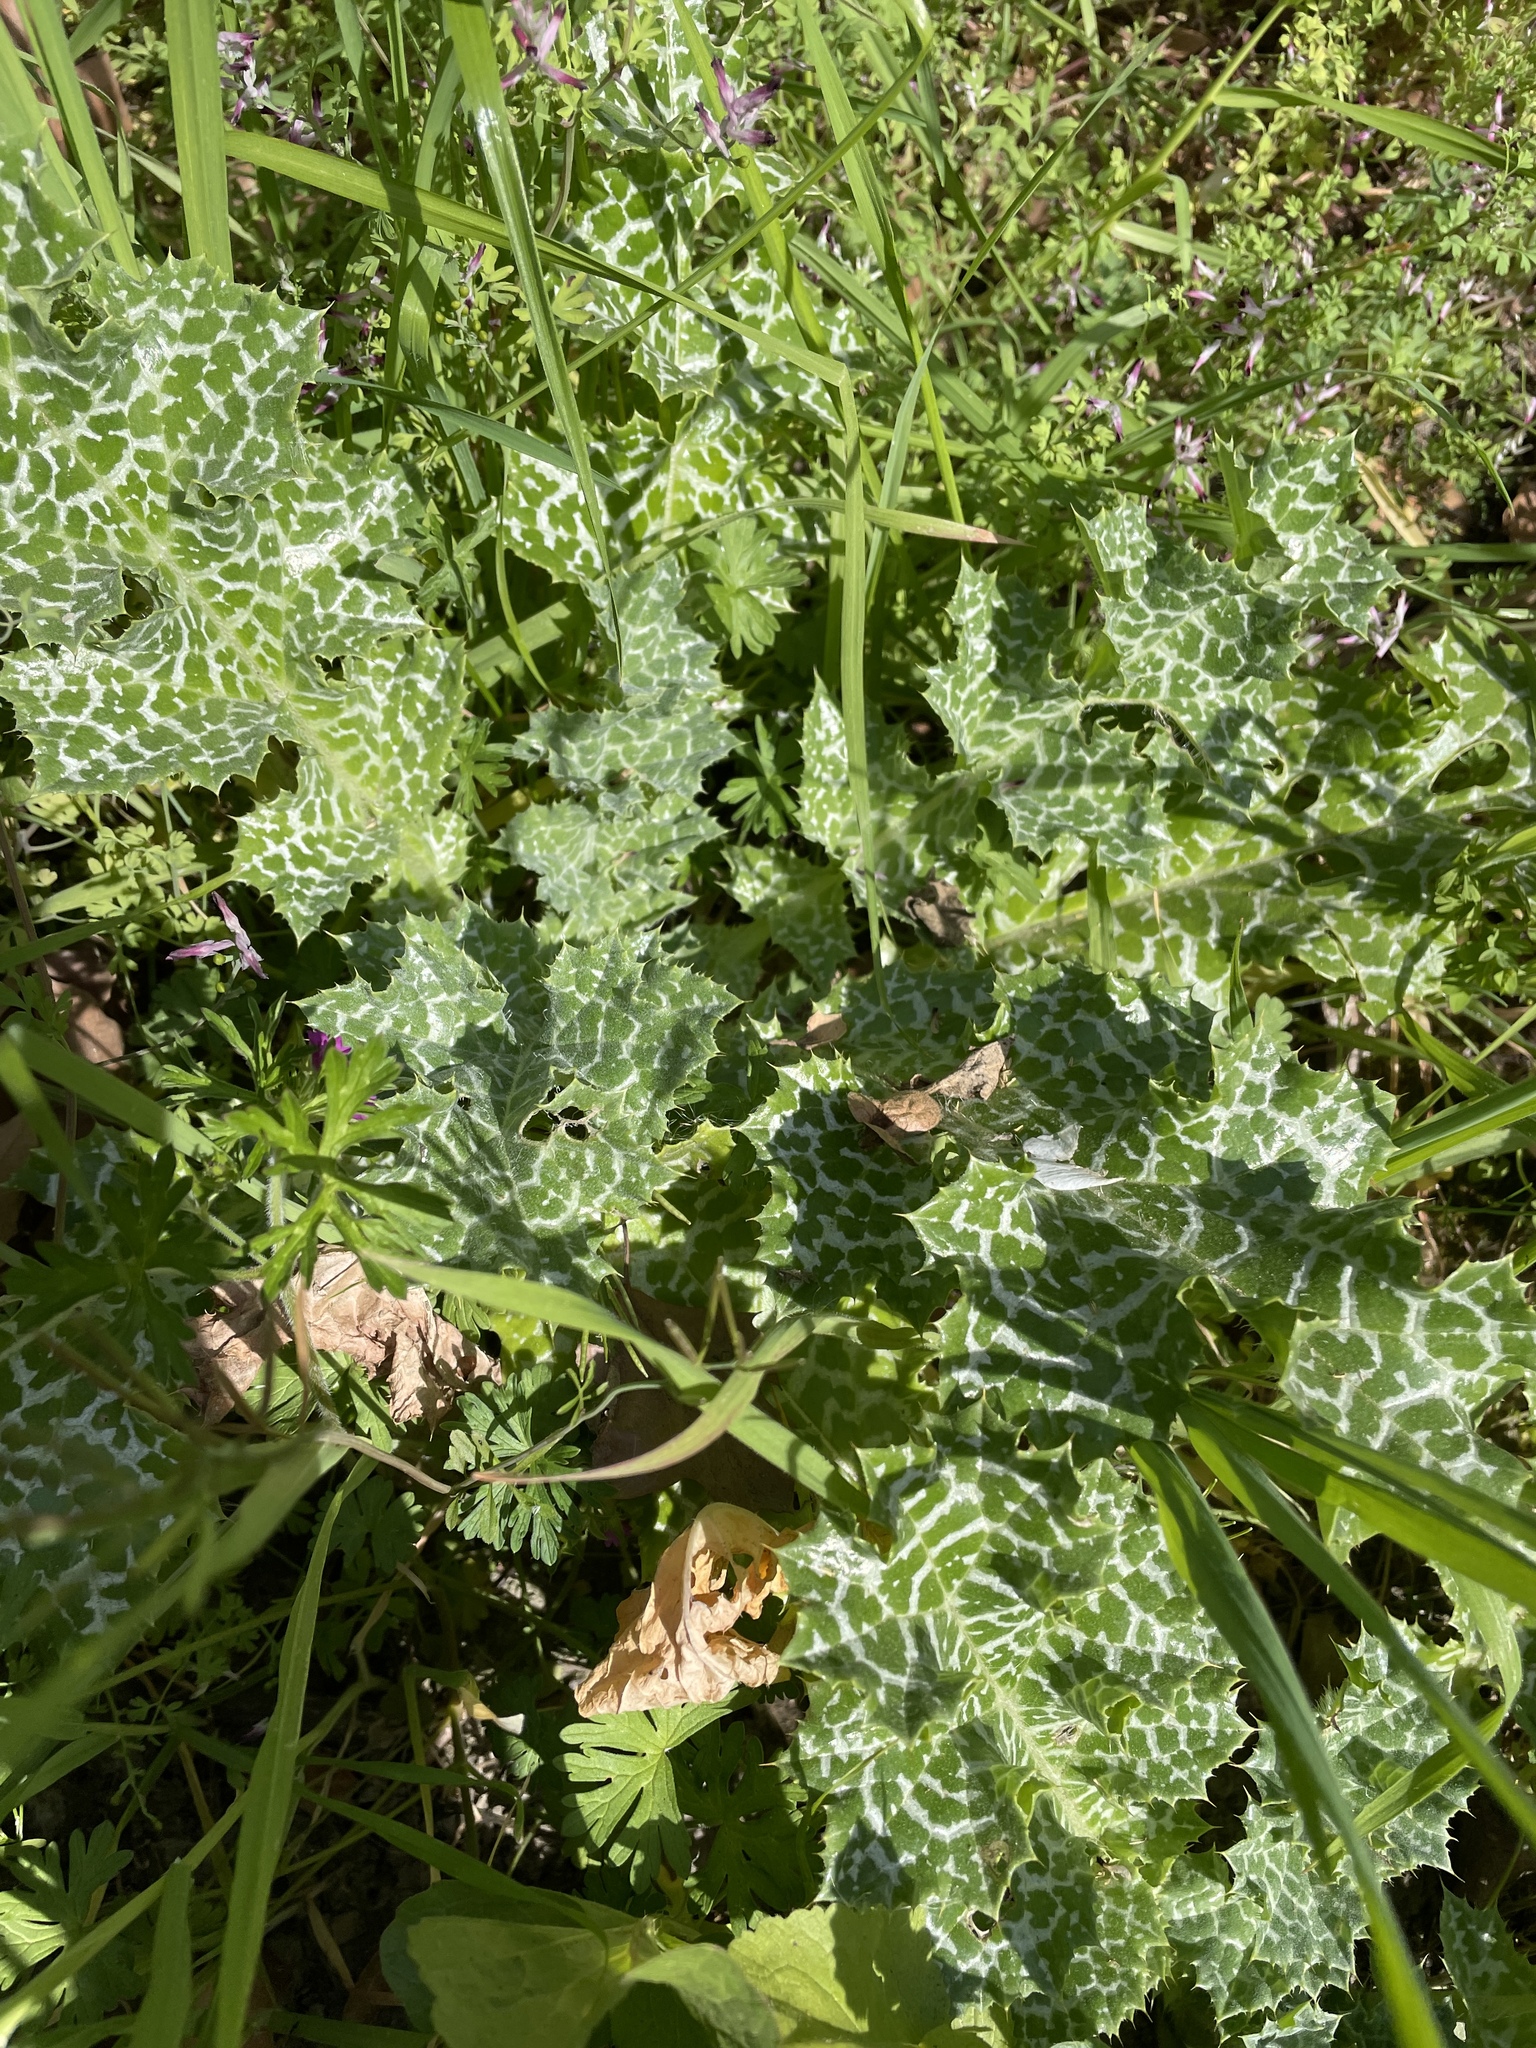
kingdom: Plantae
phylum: Tracheophyta
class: Magnoliopsida
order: Asterales
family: Asteraceae
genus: Silybum
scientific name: Silybum marianum
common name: Milk thistle
